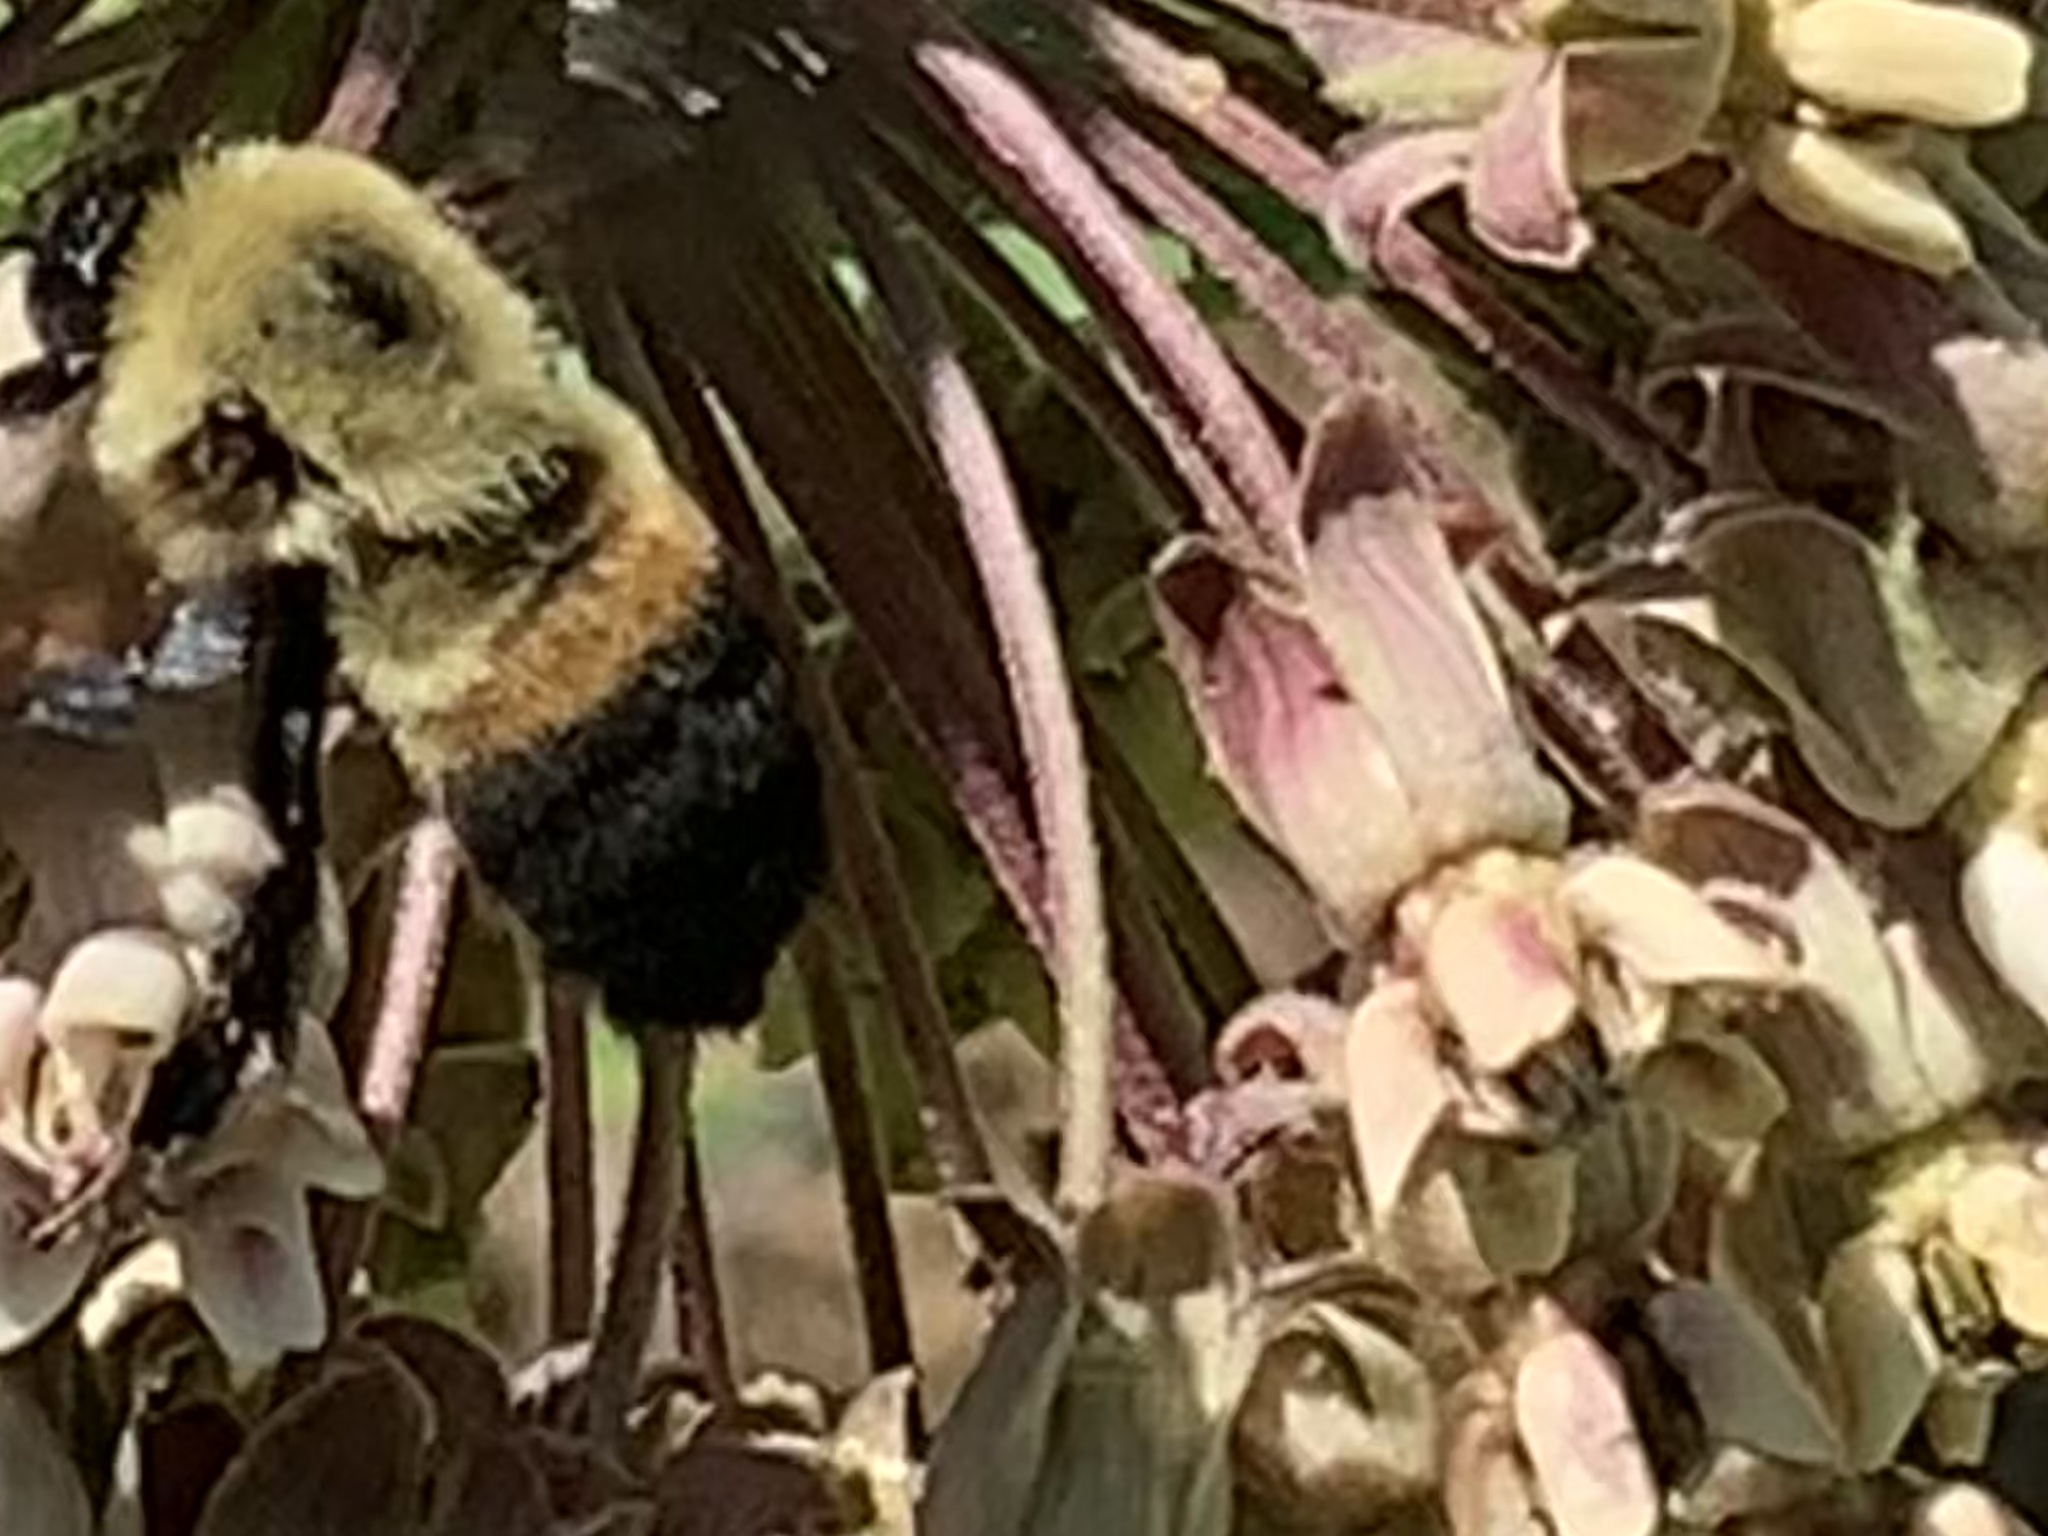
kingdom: Animalia
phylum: Arthropoda
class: Insecta
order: Hymenoptera
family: Apidae
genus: Bombus
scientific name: Bombus griseocollis
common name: Brown-belted bumble bee
